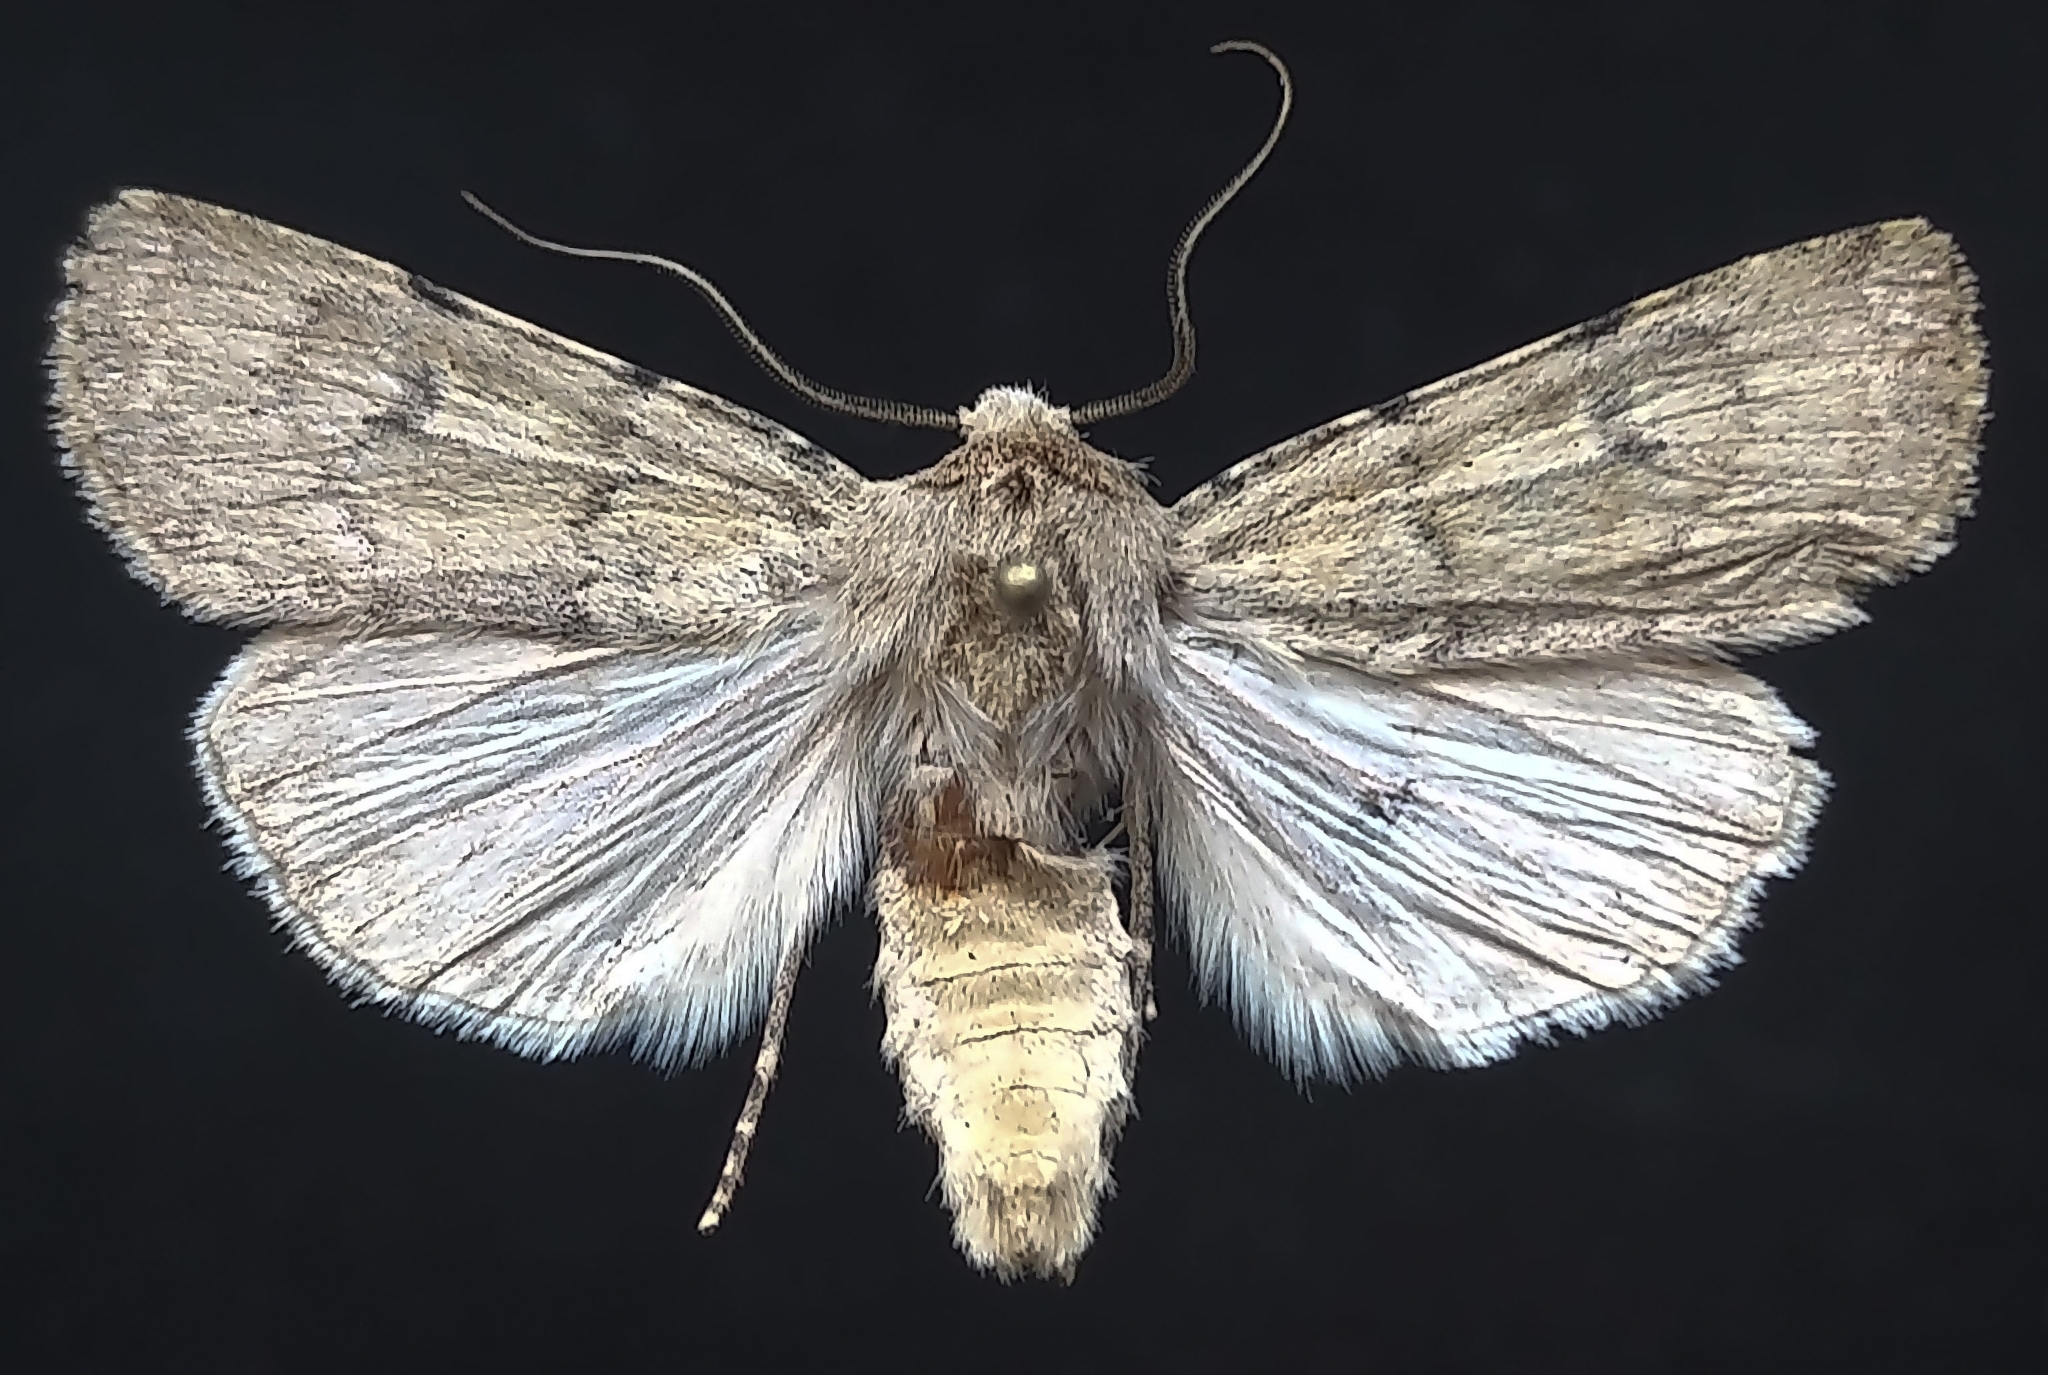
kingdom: Animalia
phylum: Arthropoda
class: Insecta
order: Lepidoptera
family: Noctuidae
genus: Euxoa
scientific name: Euxoa difformis
